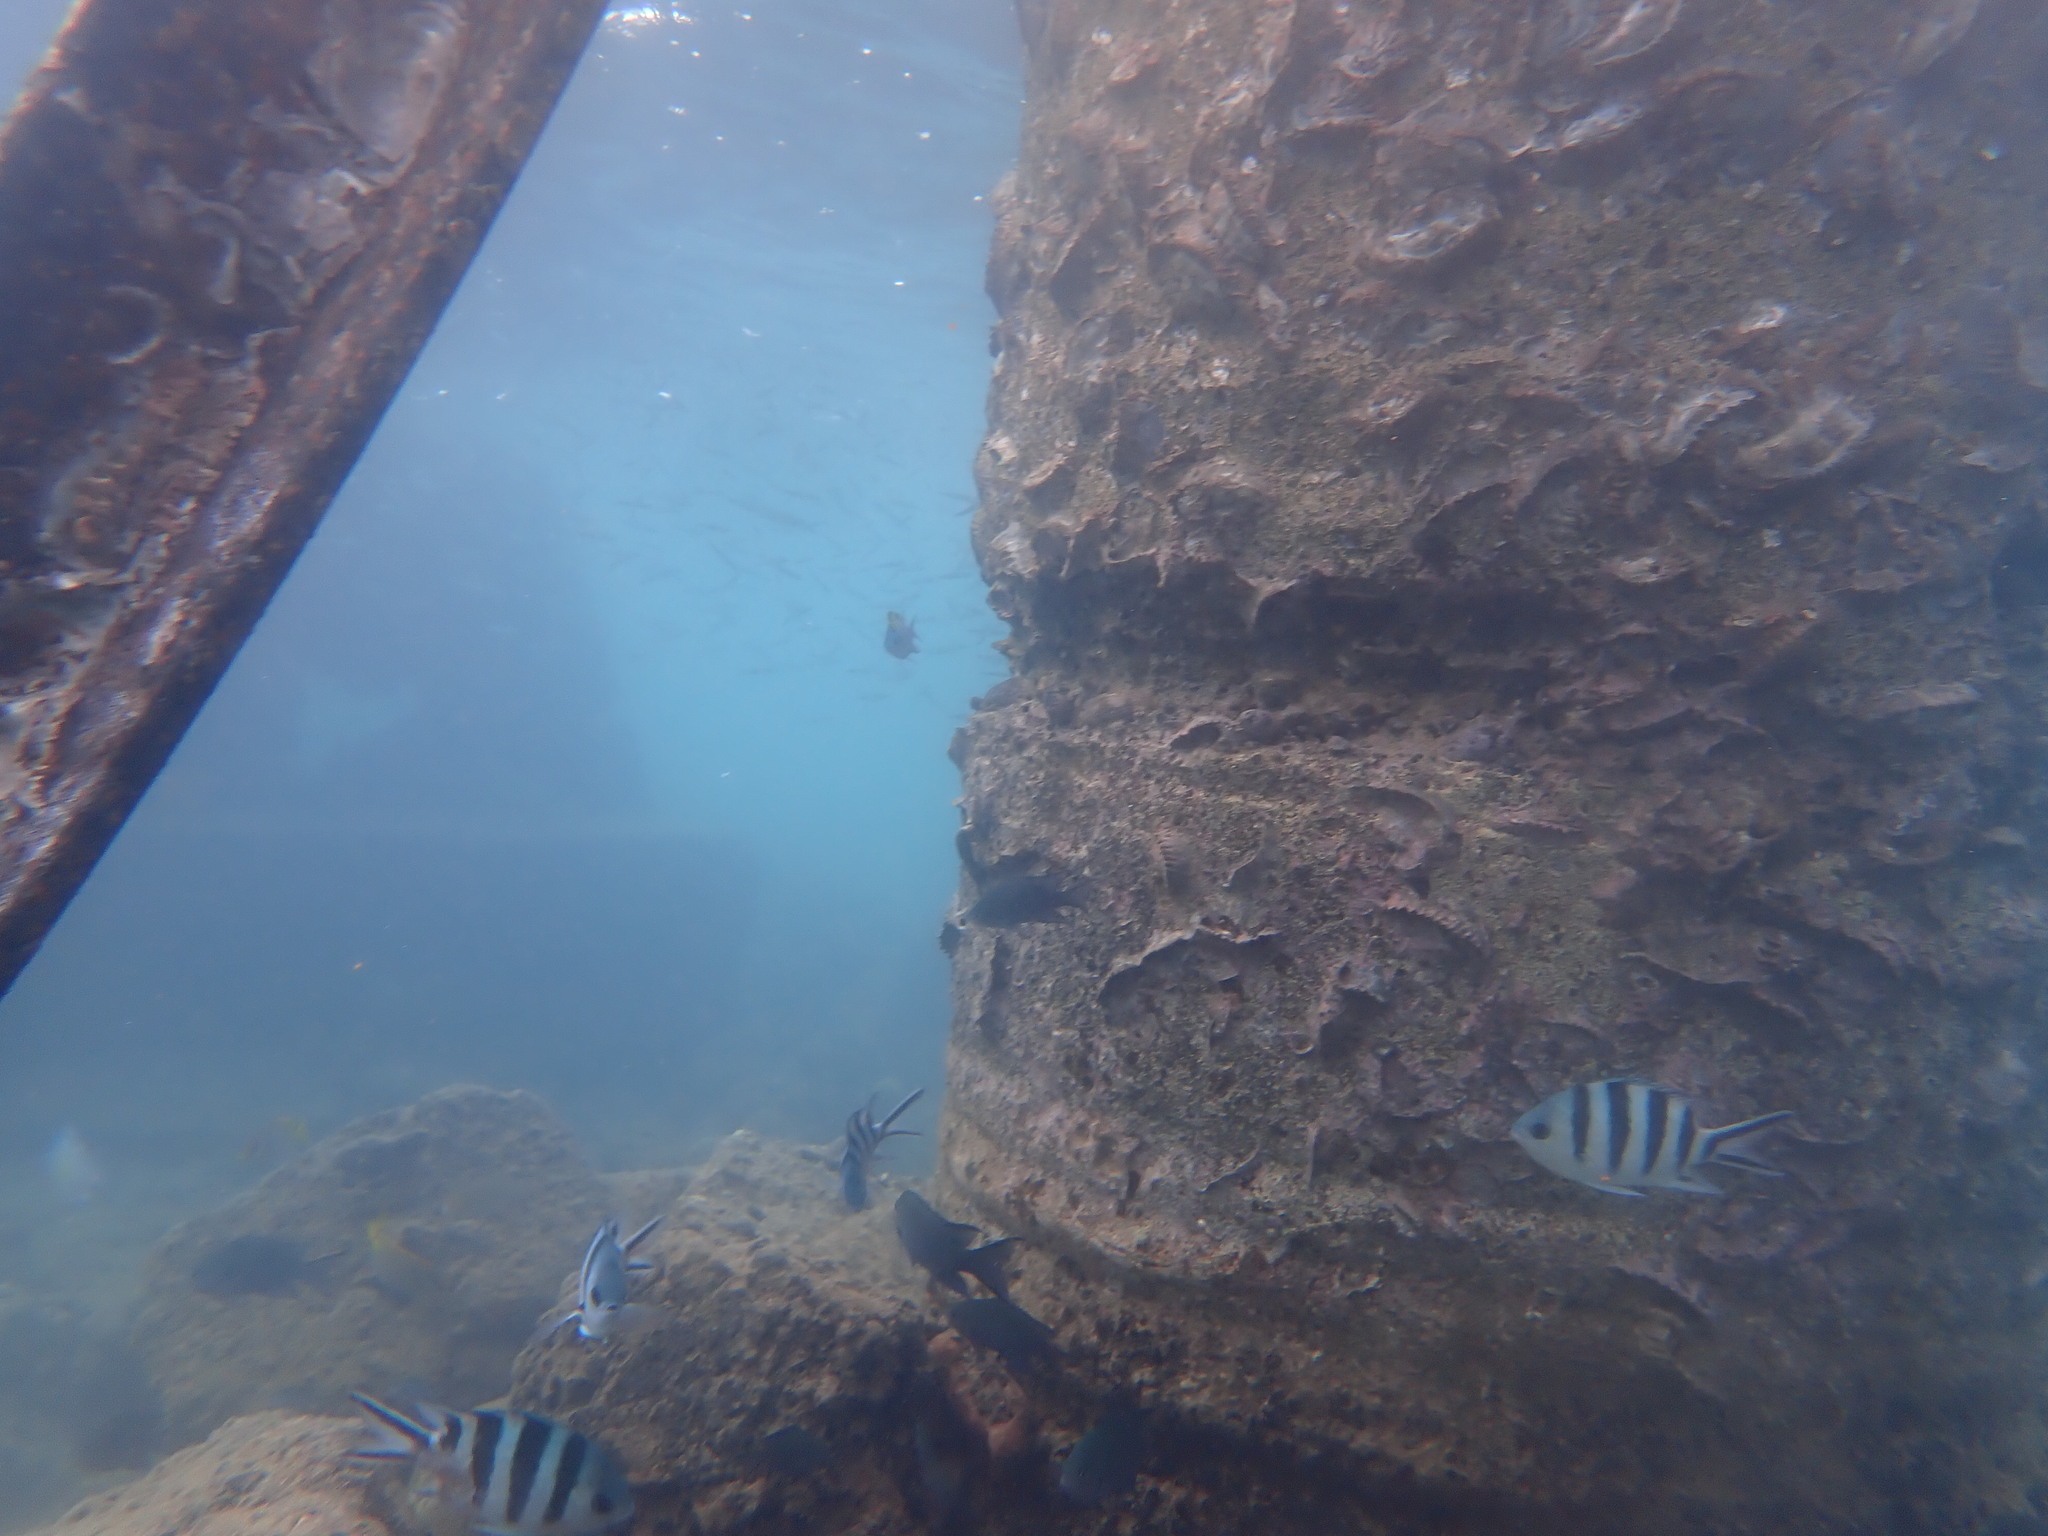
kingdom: Animalia
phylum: Chordata
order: Perciformes
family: Pomacentridae
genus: Abudefduf
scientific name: Abudefduf sexfasciatus
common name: Scissortail sergeant
